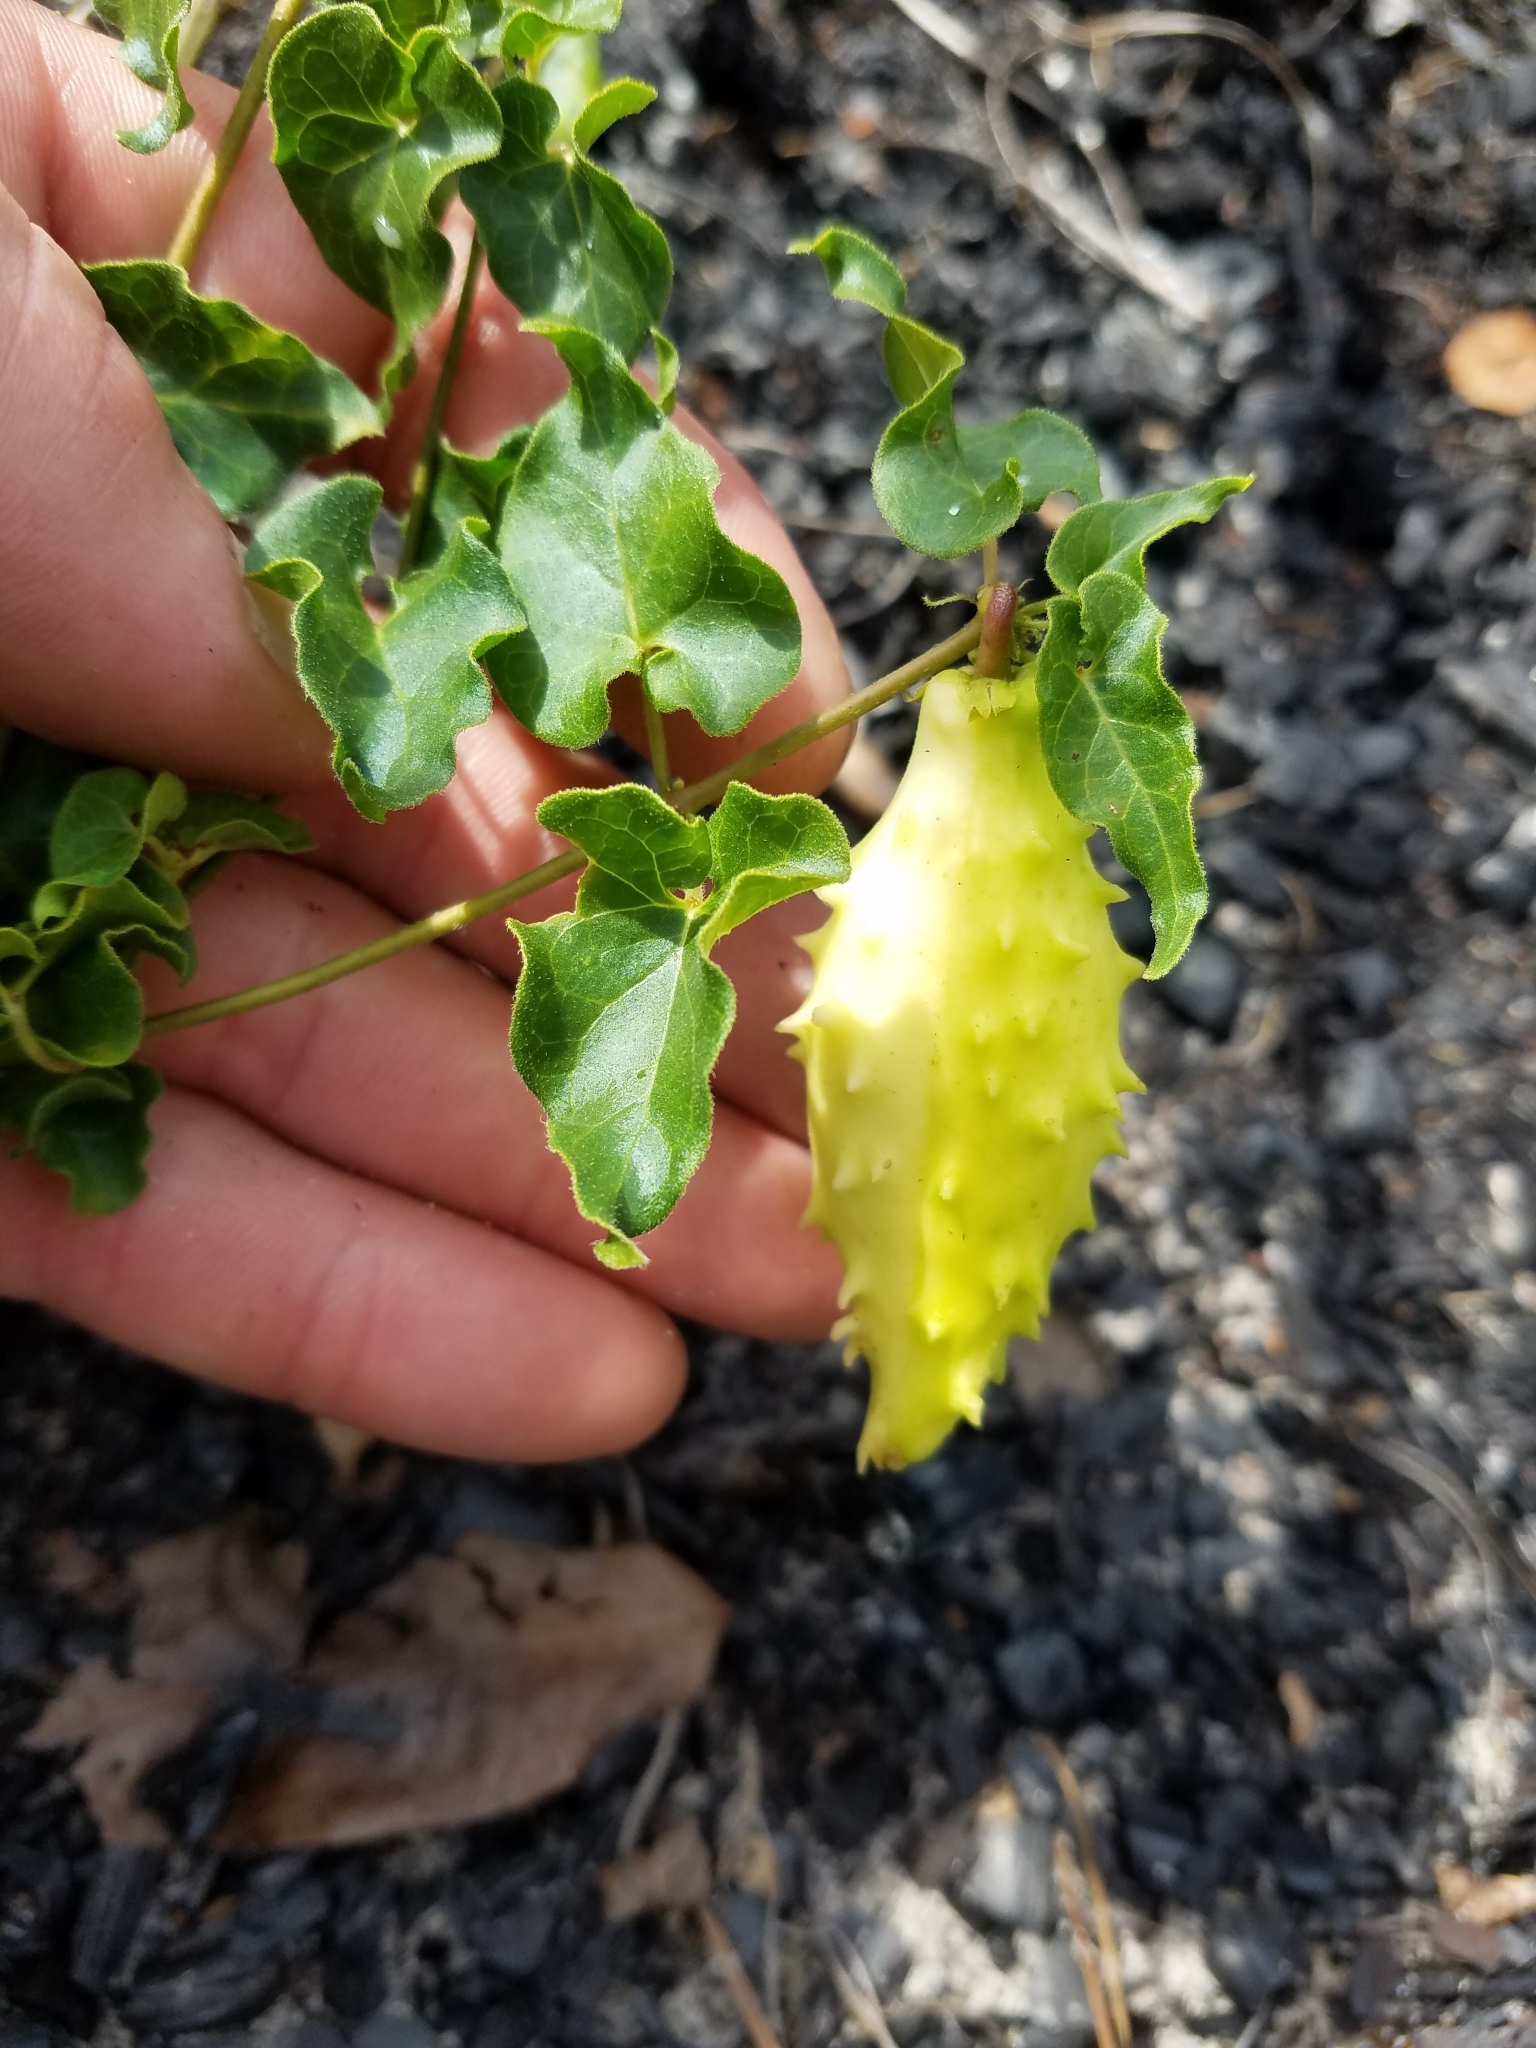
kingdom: Plantae
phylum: Tracheophyta
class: Magnoliopsida
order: Gentianales
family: Apocynaceae
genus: Chthamalia
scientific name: Chthamalia pubiflora
